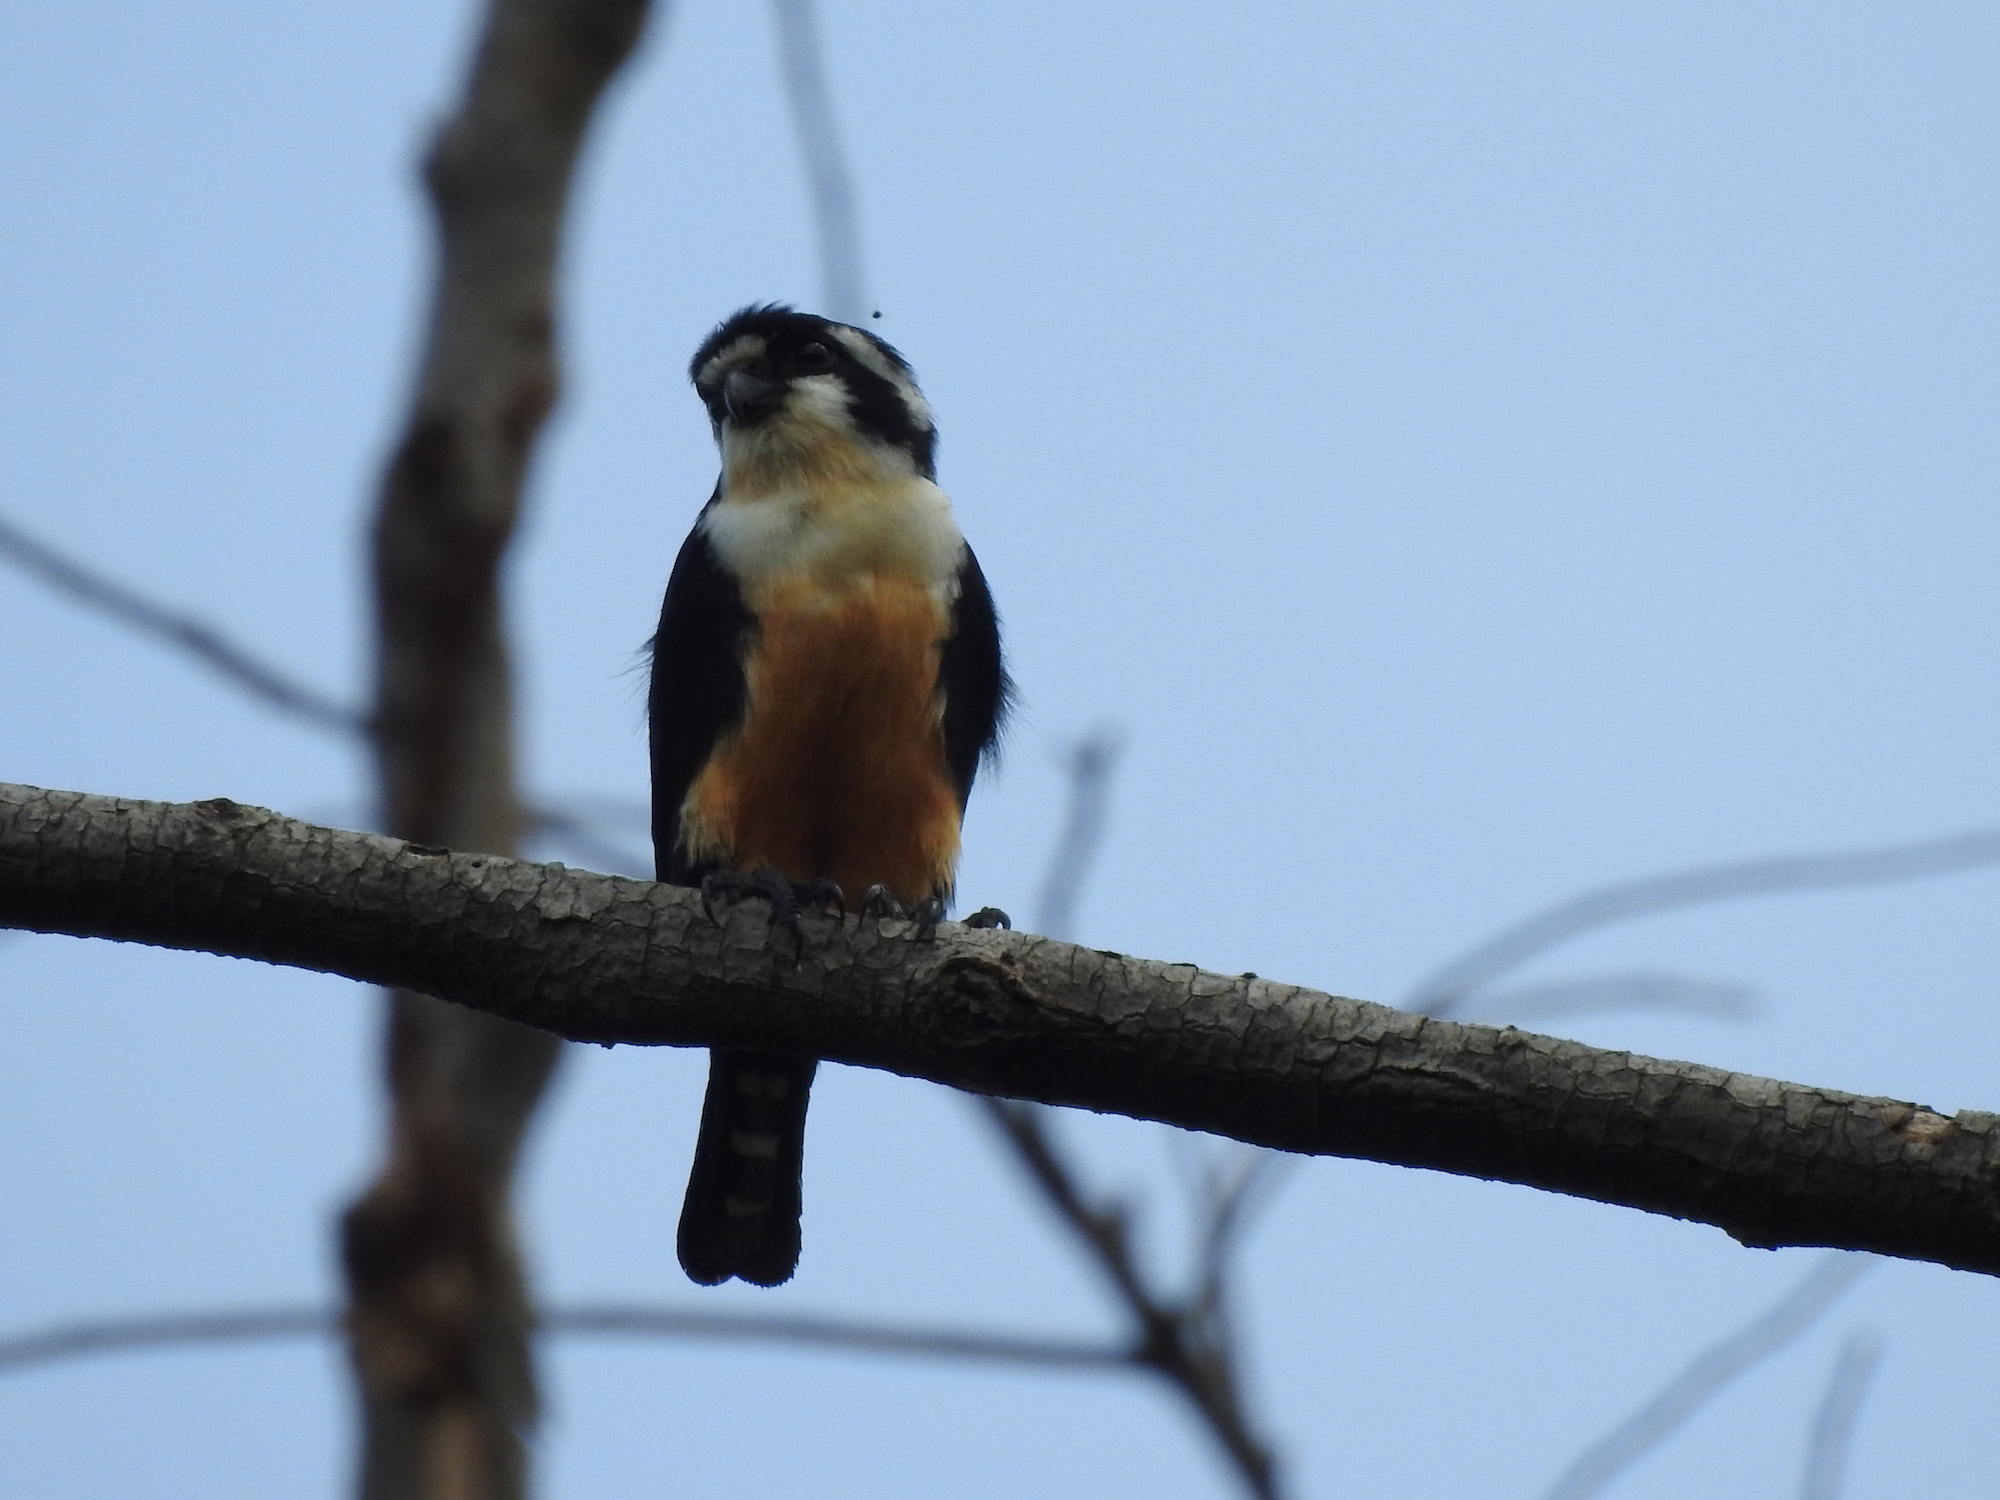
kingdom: Animalia
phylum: Chordata
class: Aves
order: Falconiformes
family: Falconidae
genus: Microhierax
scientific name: Microhierax fringillarius
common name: Black-thighed falconet
